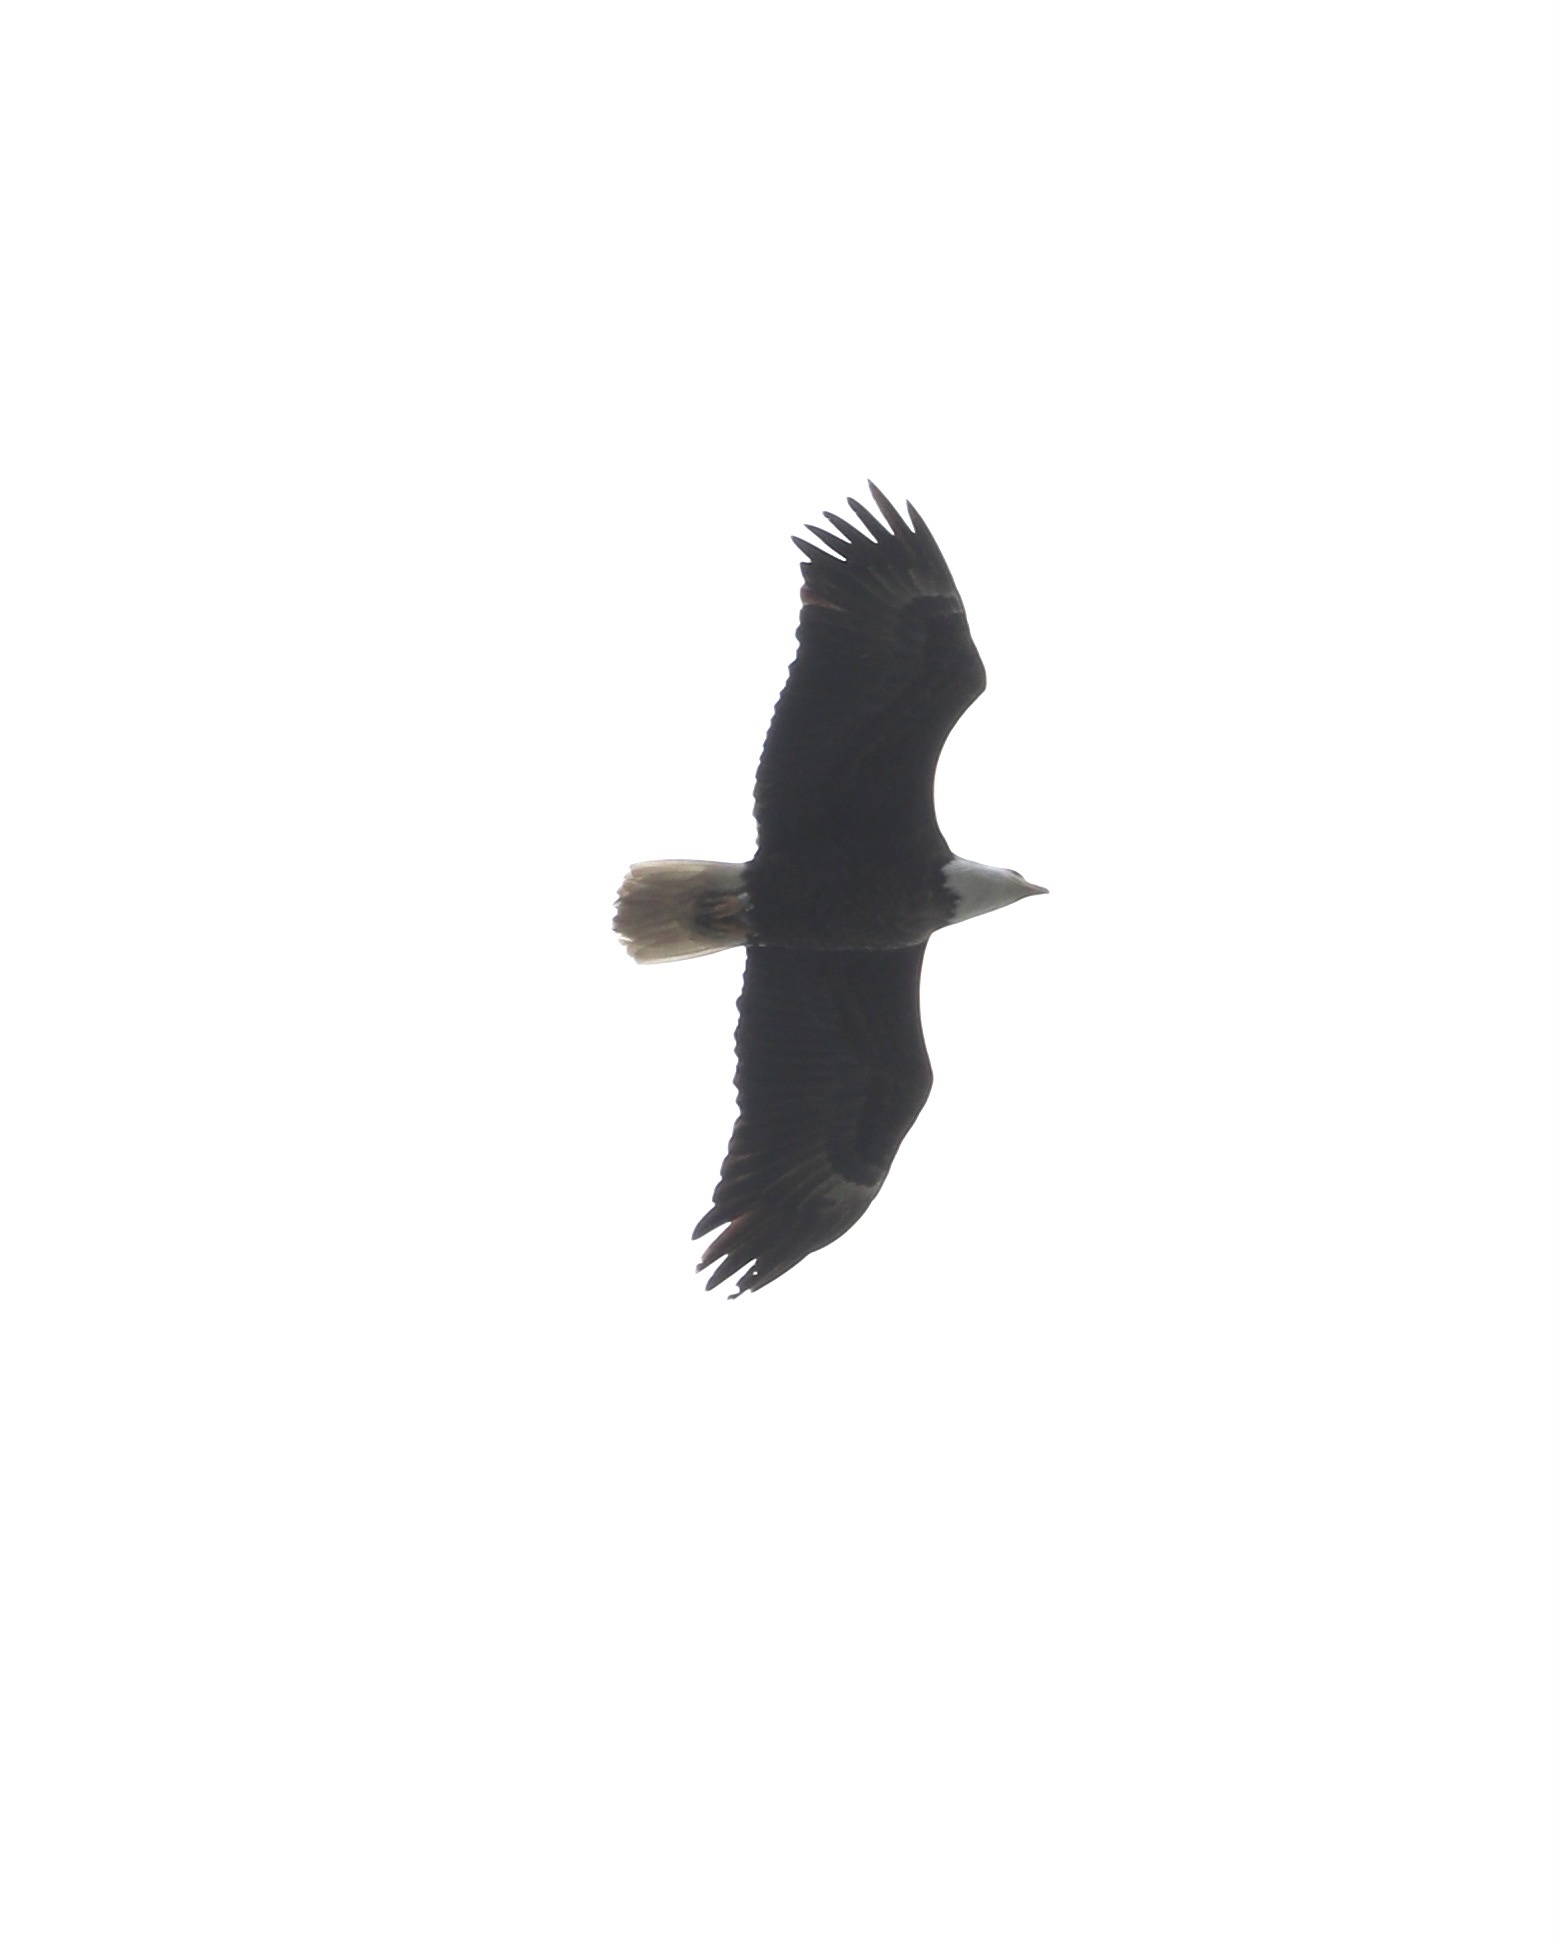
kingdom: Animalia
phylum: Chordata
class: Aves
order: Accipitriformes
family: Accipitridae
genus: Haliaeetus
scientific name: Haliaeetus leucocephalus
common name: Bald eagle
